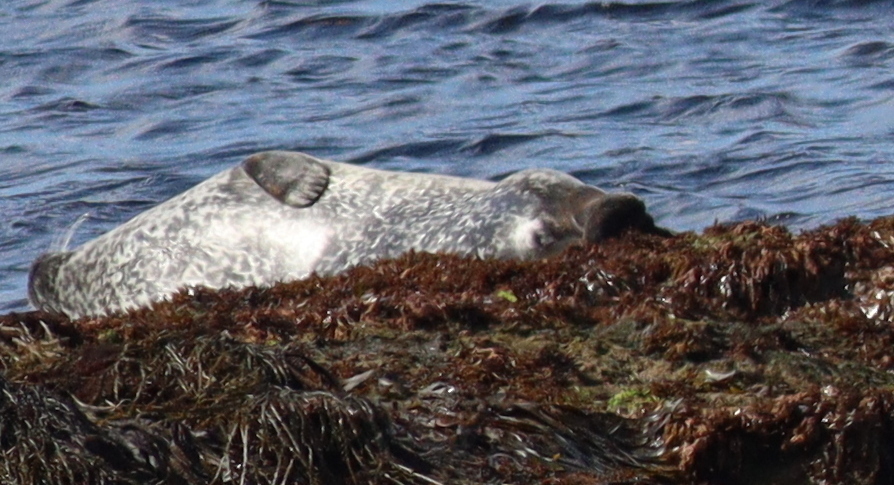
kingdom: Animalia
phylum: Chordata
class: Mammalia
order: Carnivora
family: Phocidae
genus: Phoca
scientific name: Phoca vitulina
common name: Harbor seal
